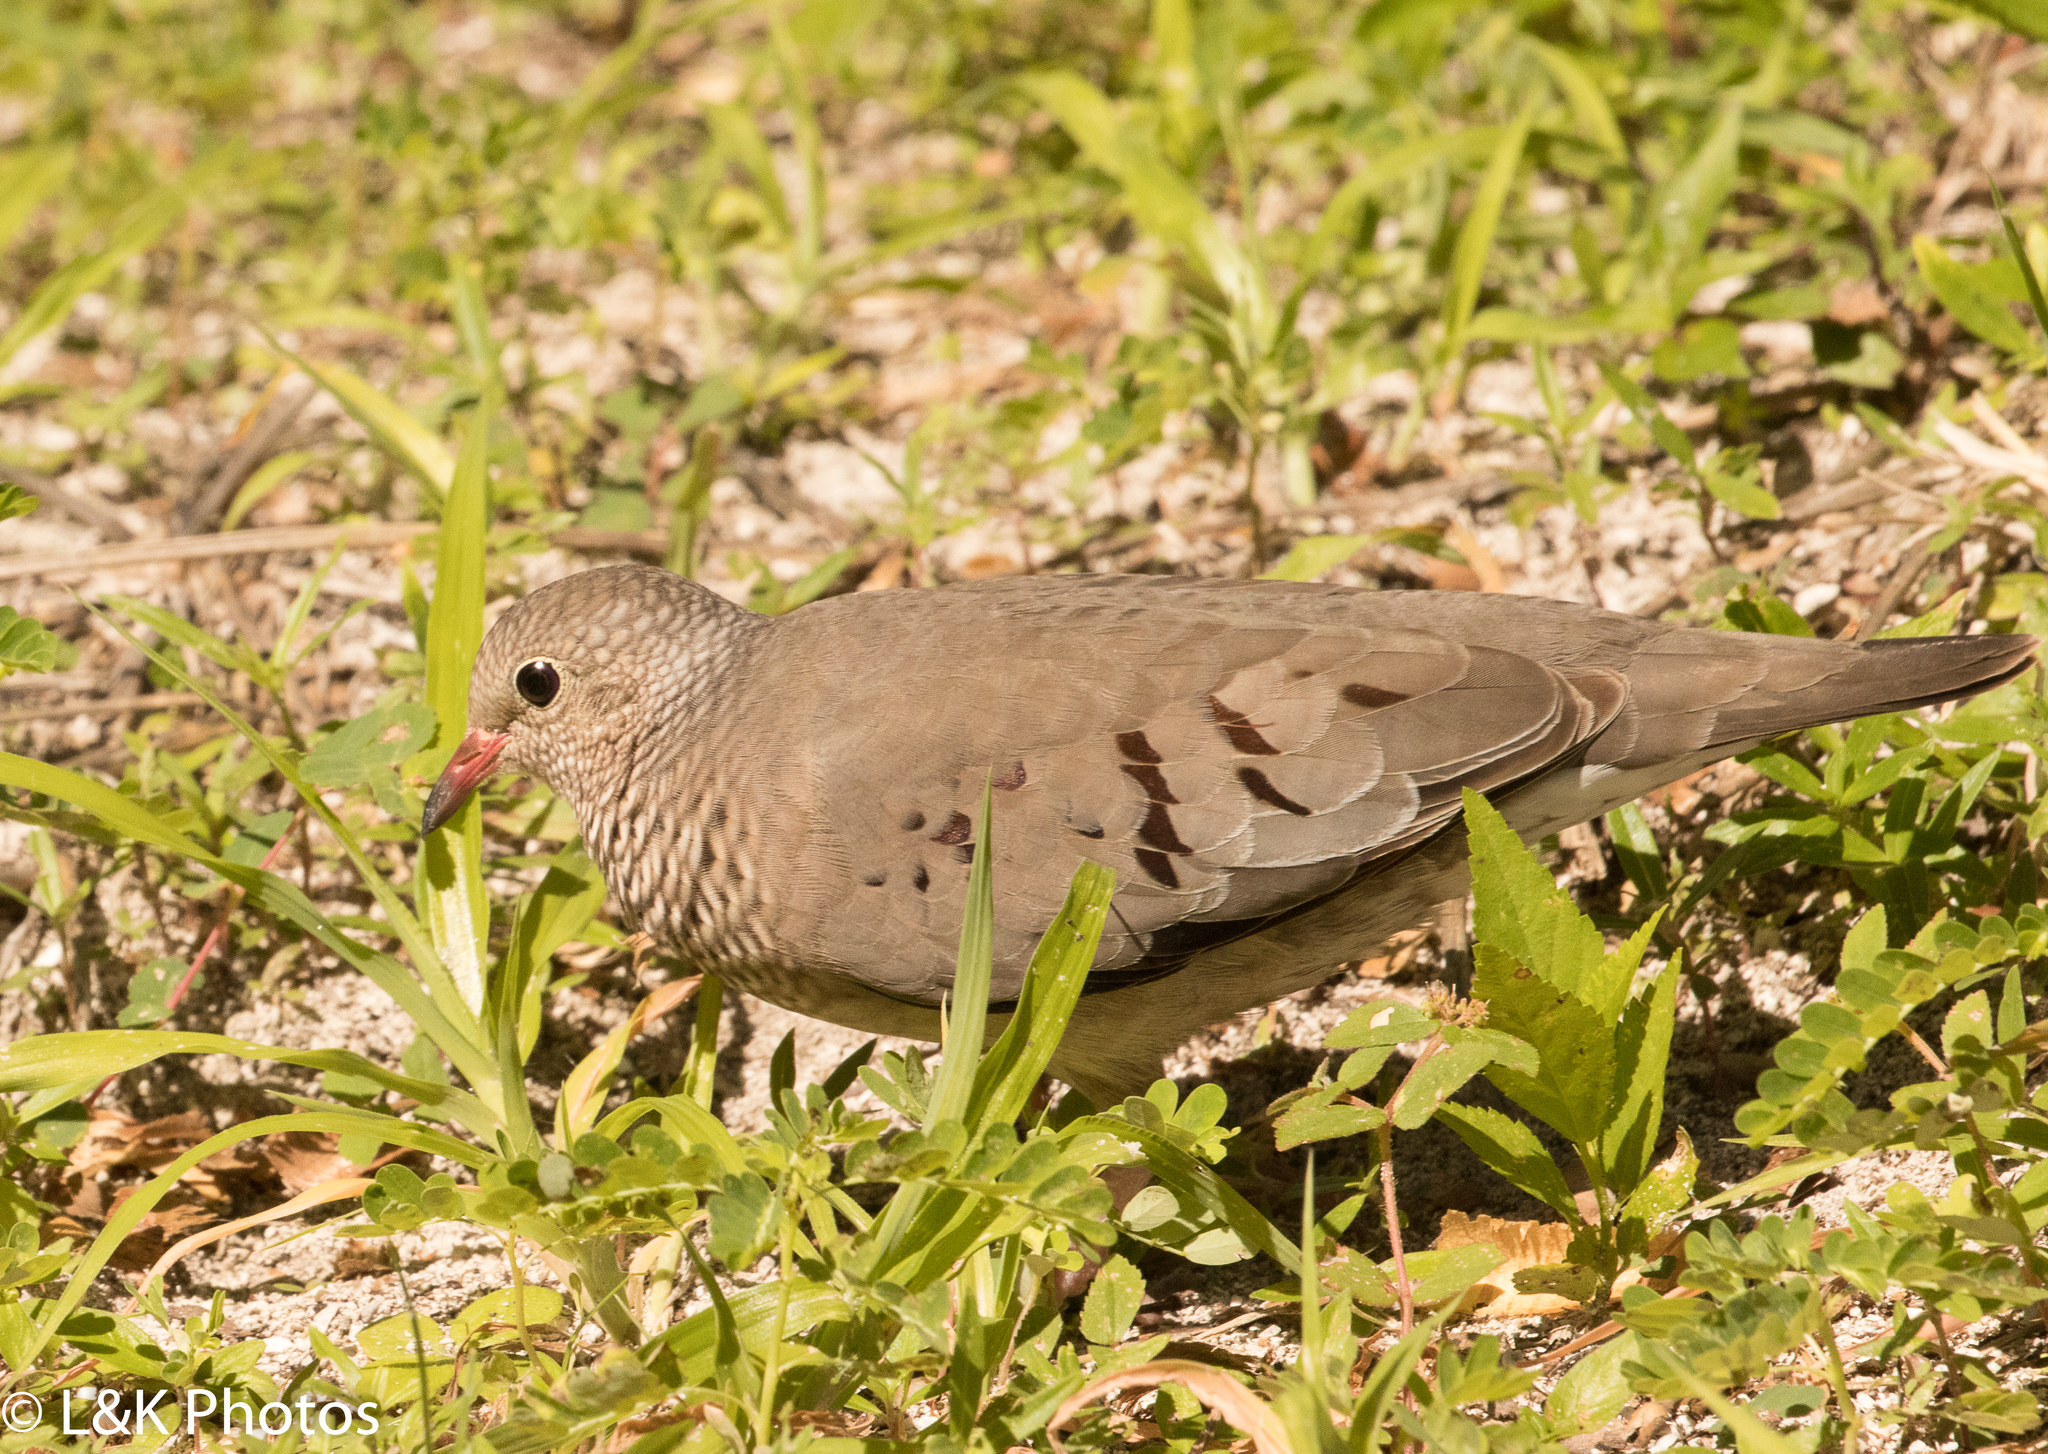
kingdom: Animalia
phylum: Chordata
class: Aves
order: Columbiformes
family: Columbidae
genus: Columbina
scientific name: Columbina passerina
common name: Common ground-dove
